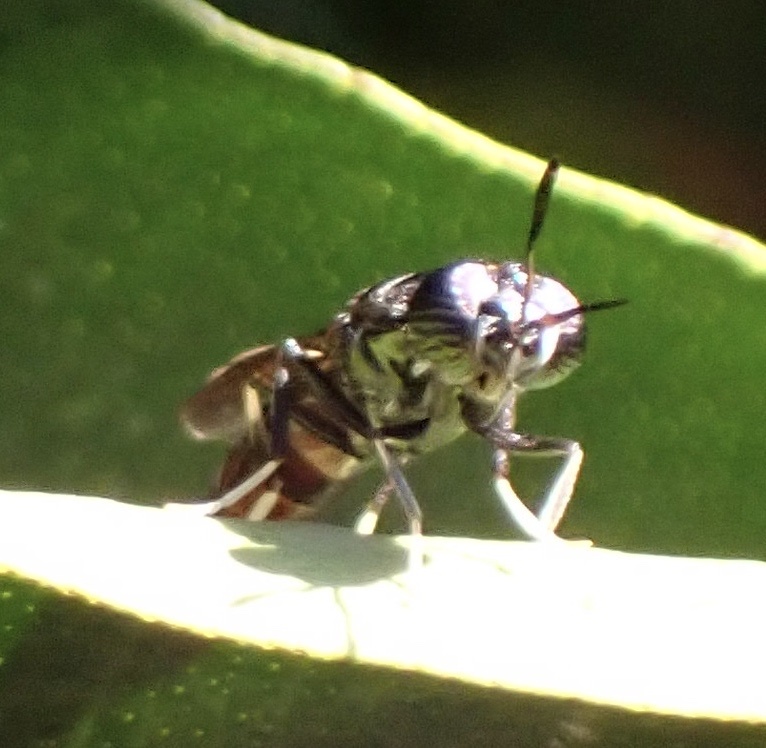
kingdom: Animalia
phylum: Arthropoda
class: Insecta
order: Diptera
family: Stratiomyidae
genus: Hermetia
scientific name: Hermetia illucens
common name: Black soldier fly
